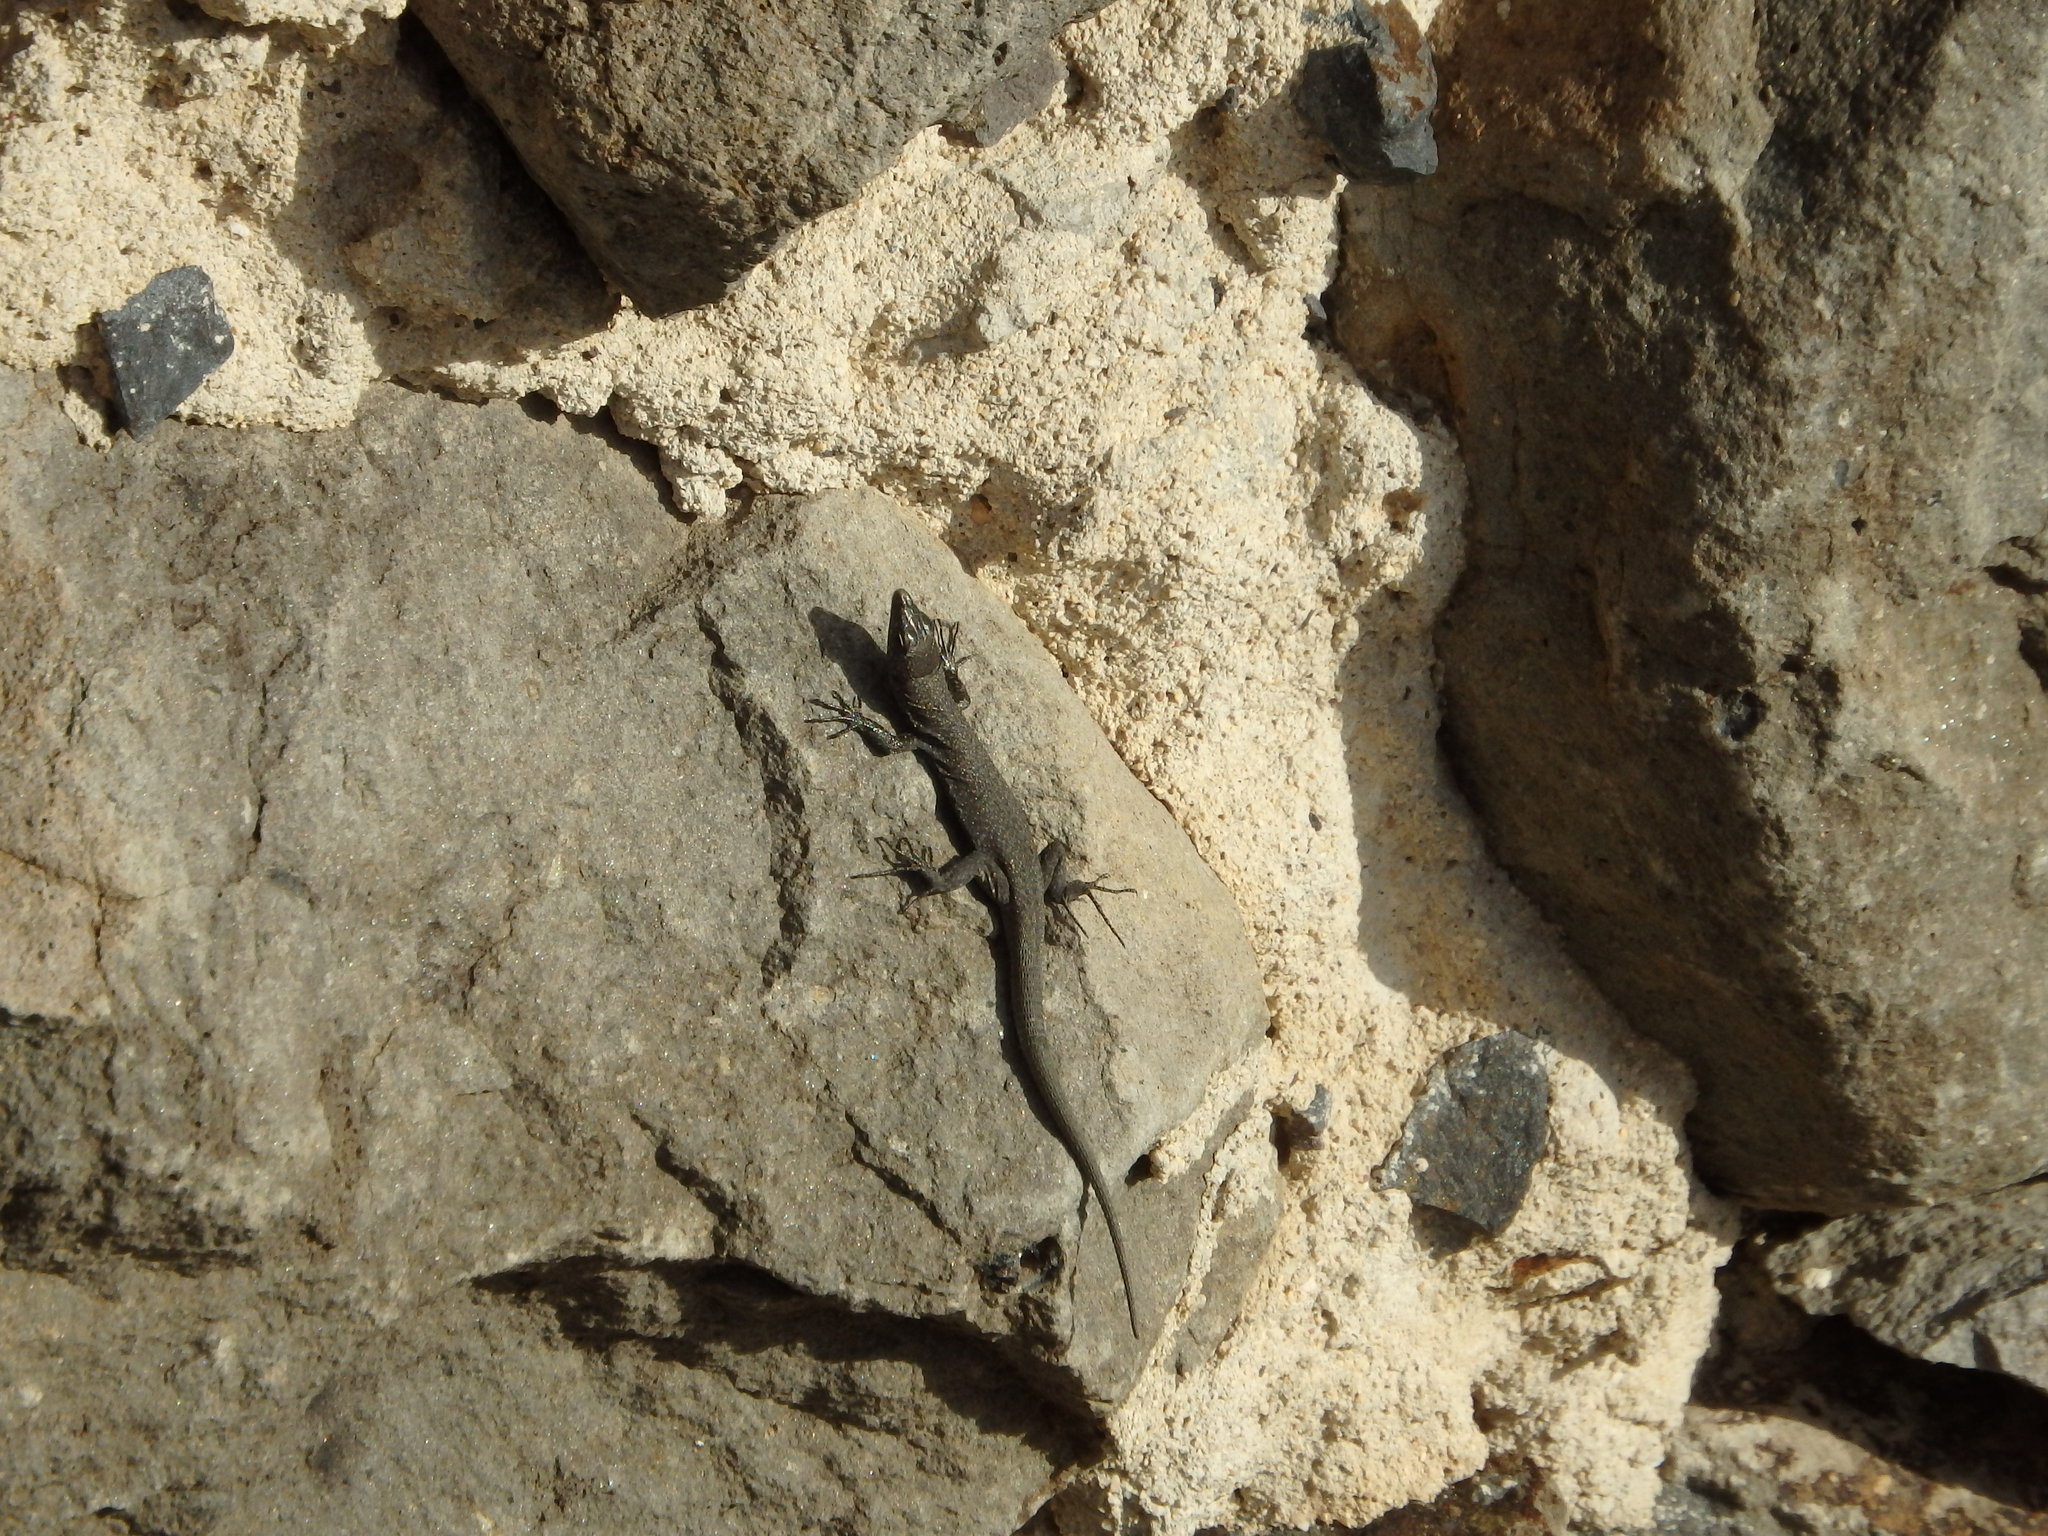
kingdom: Animalia
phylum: Chordata
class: Squamata
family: Lacertidae
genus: Teira
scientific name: Teira dugesii
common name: Madeira lizard
